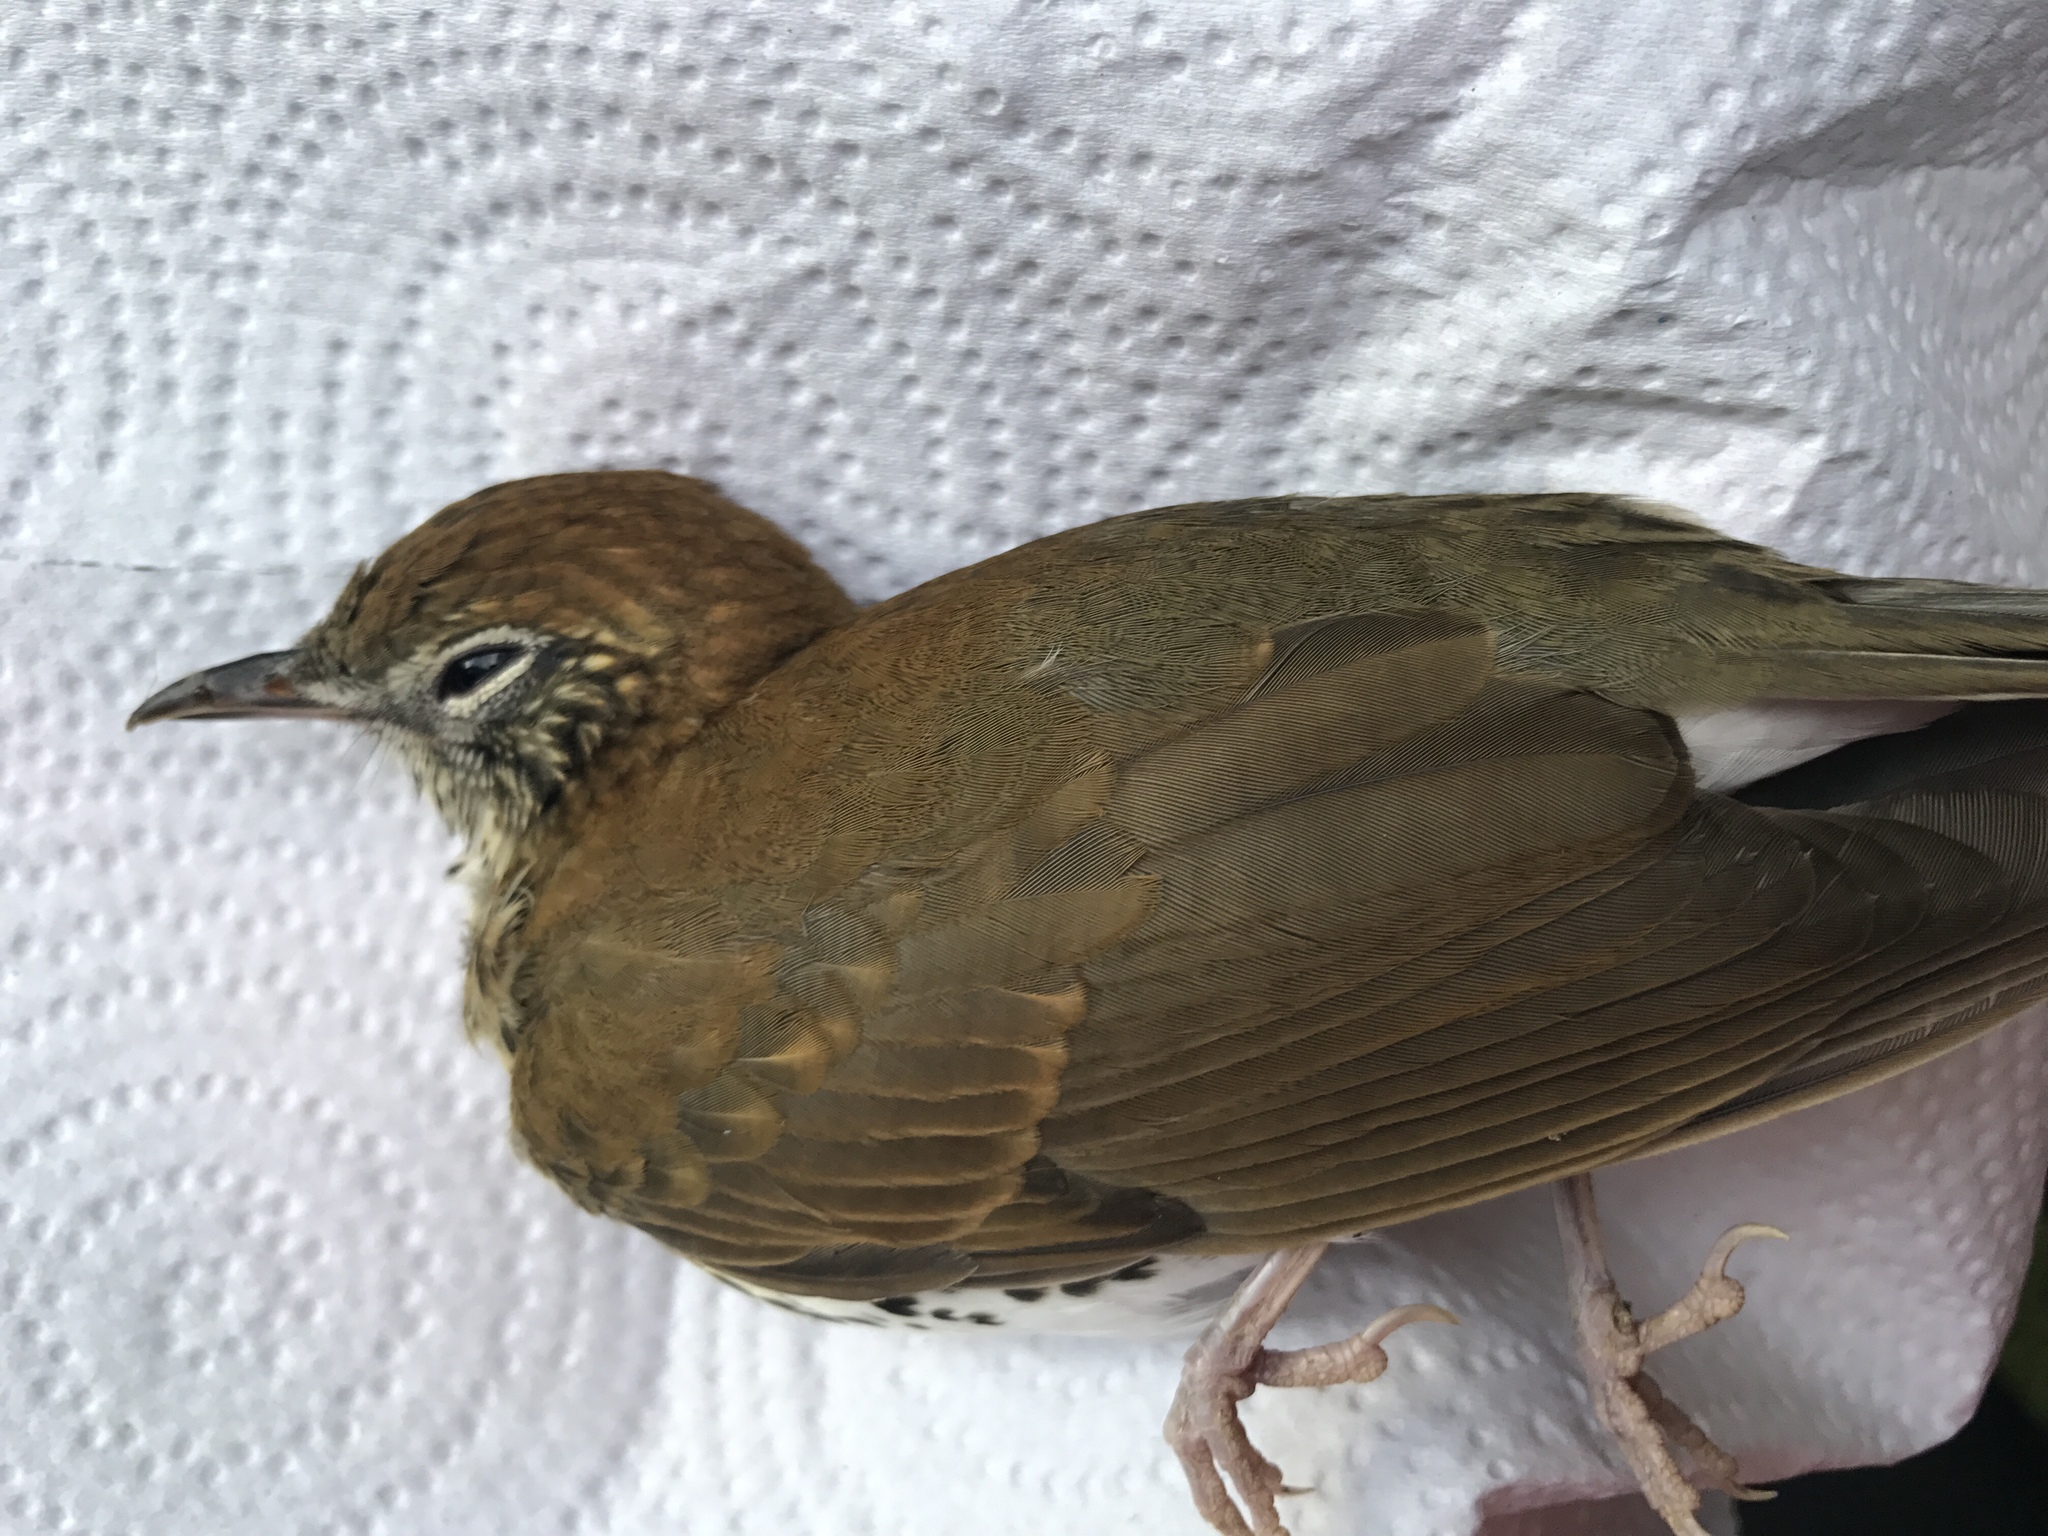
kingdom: Animalia
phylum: Chordata
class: Aves
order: Passeriformes
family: Turdidae
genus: Hylocichla
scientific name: Hylocichla mustelina
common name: Wood thrush
